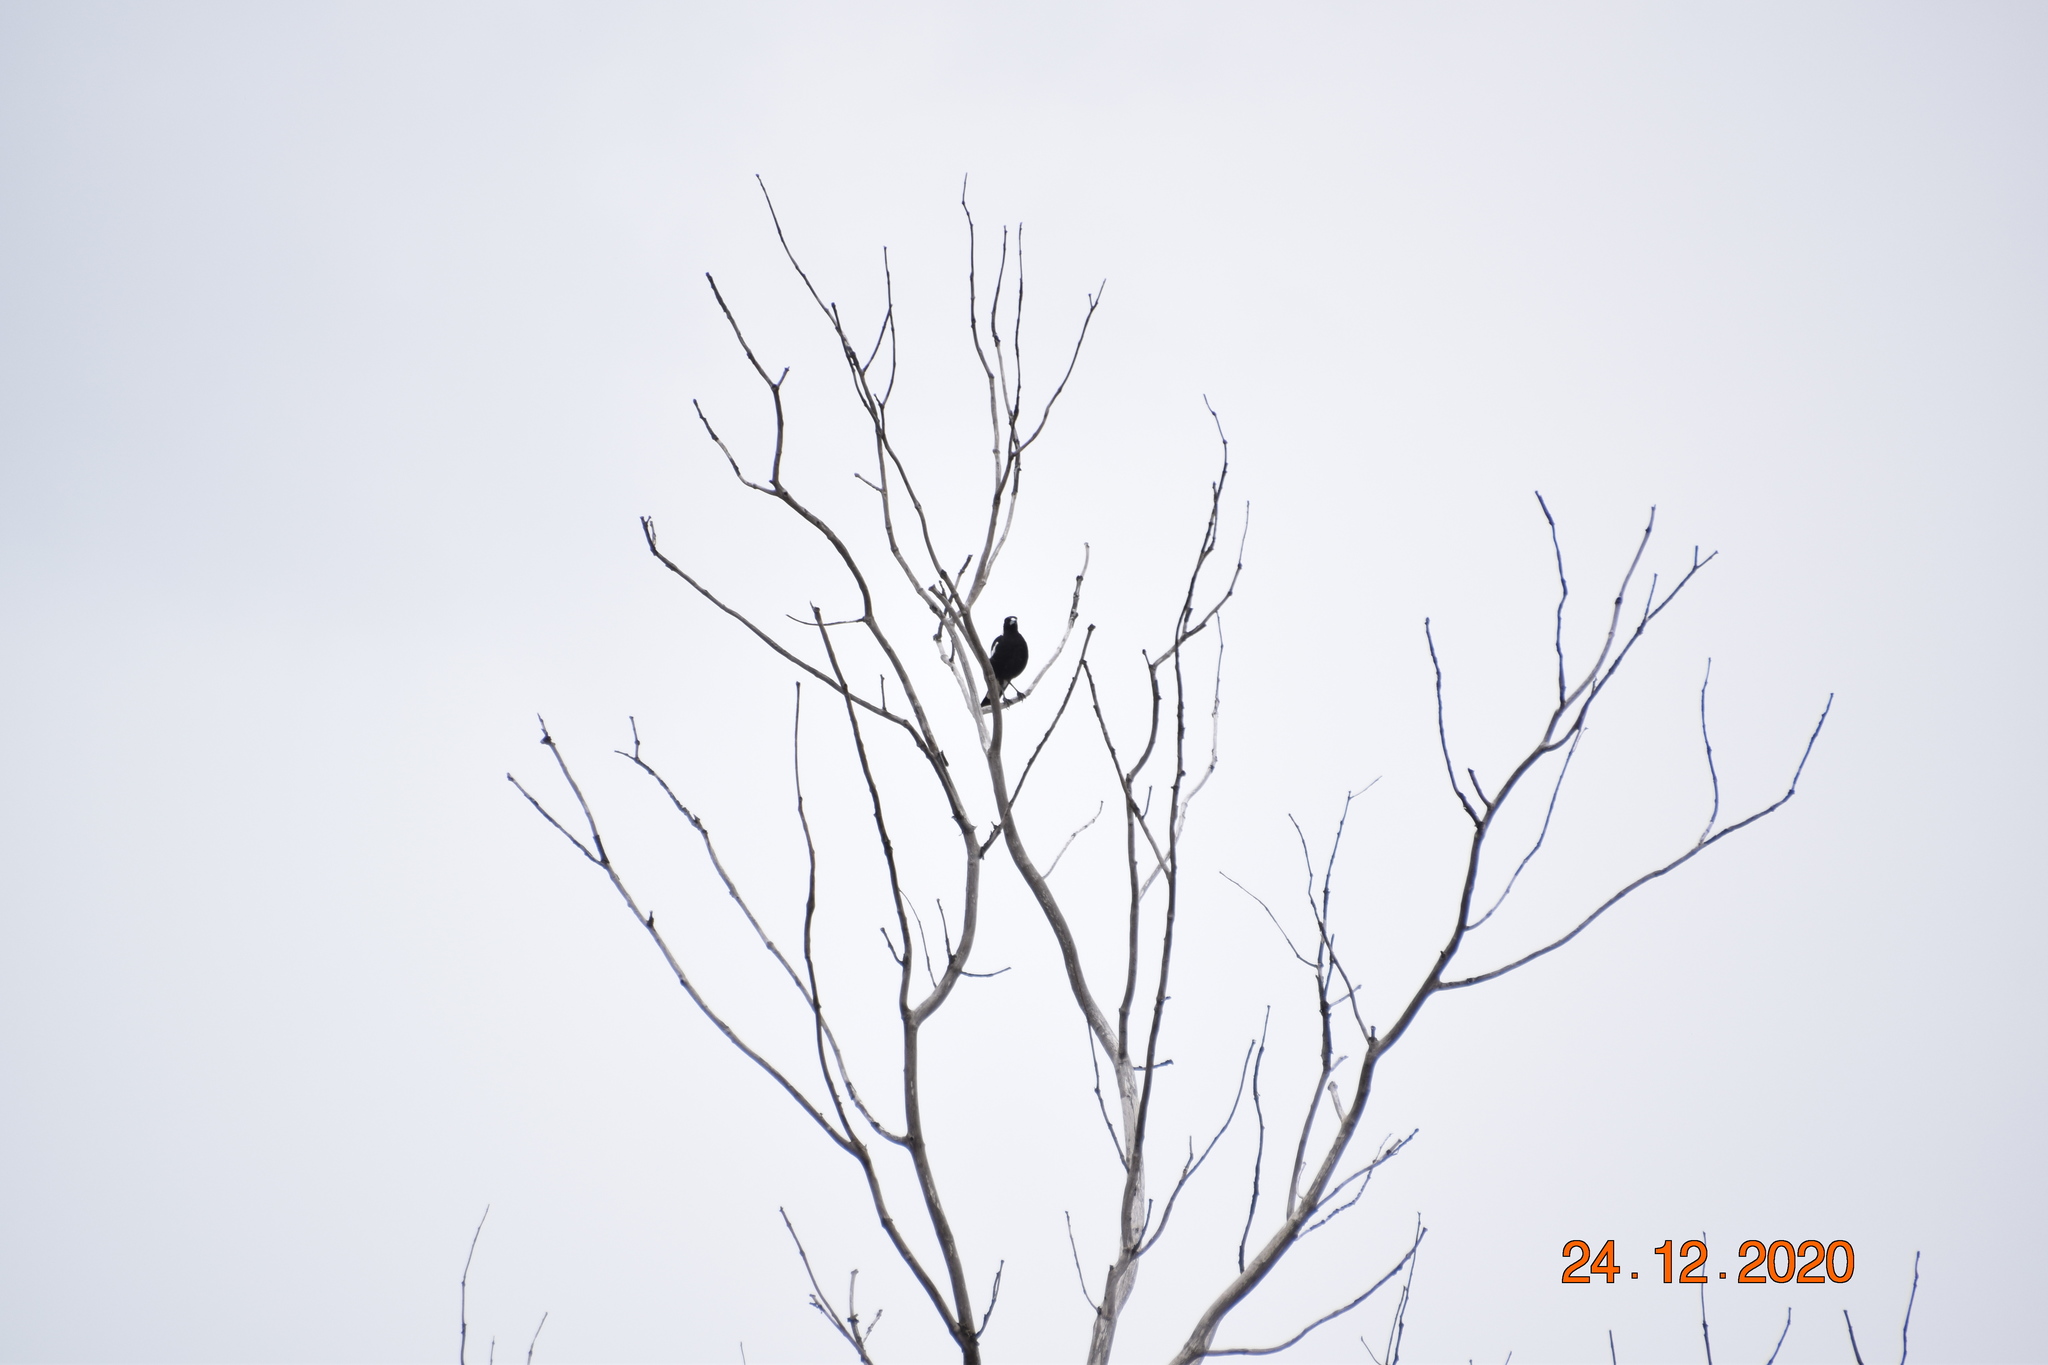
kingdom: Animalia
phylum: Chordata
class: Aves
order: Passeriformes
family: Cracticidae
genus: Gymnorhina
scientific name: Gymnorhina tibicen
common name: Australian magpie
